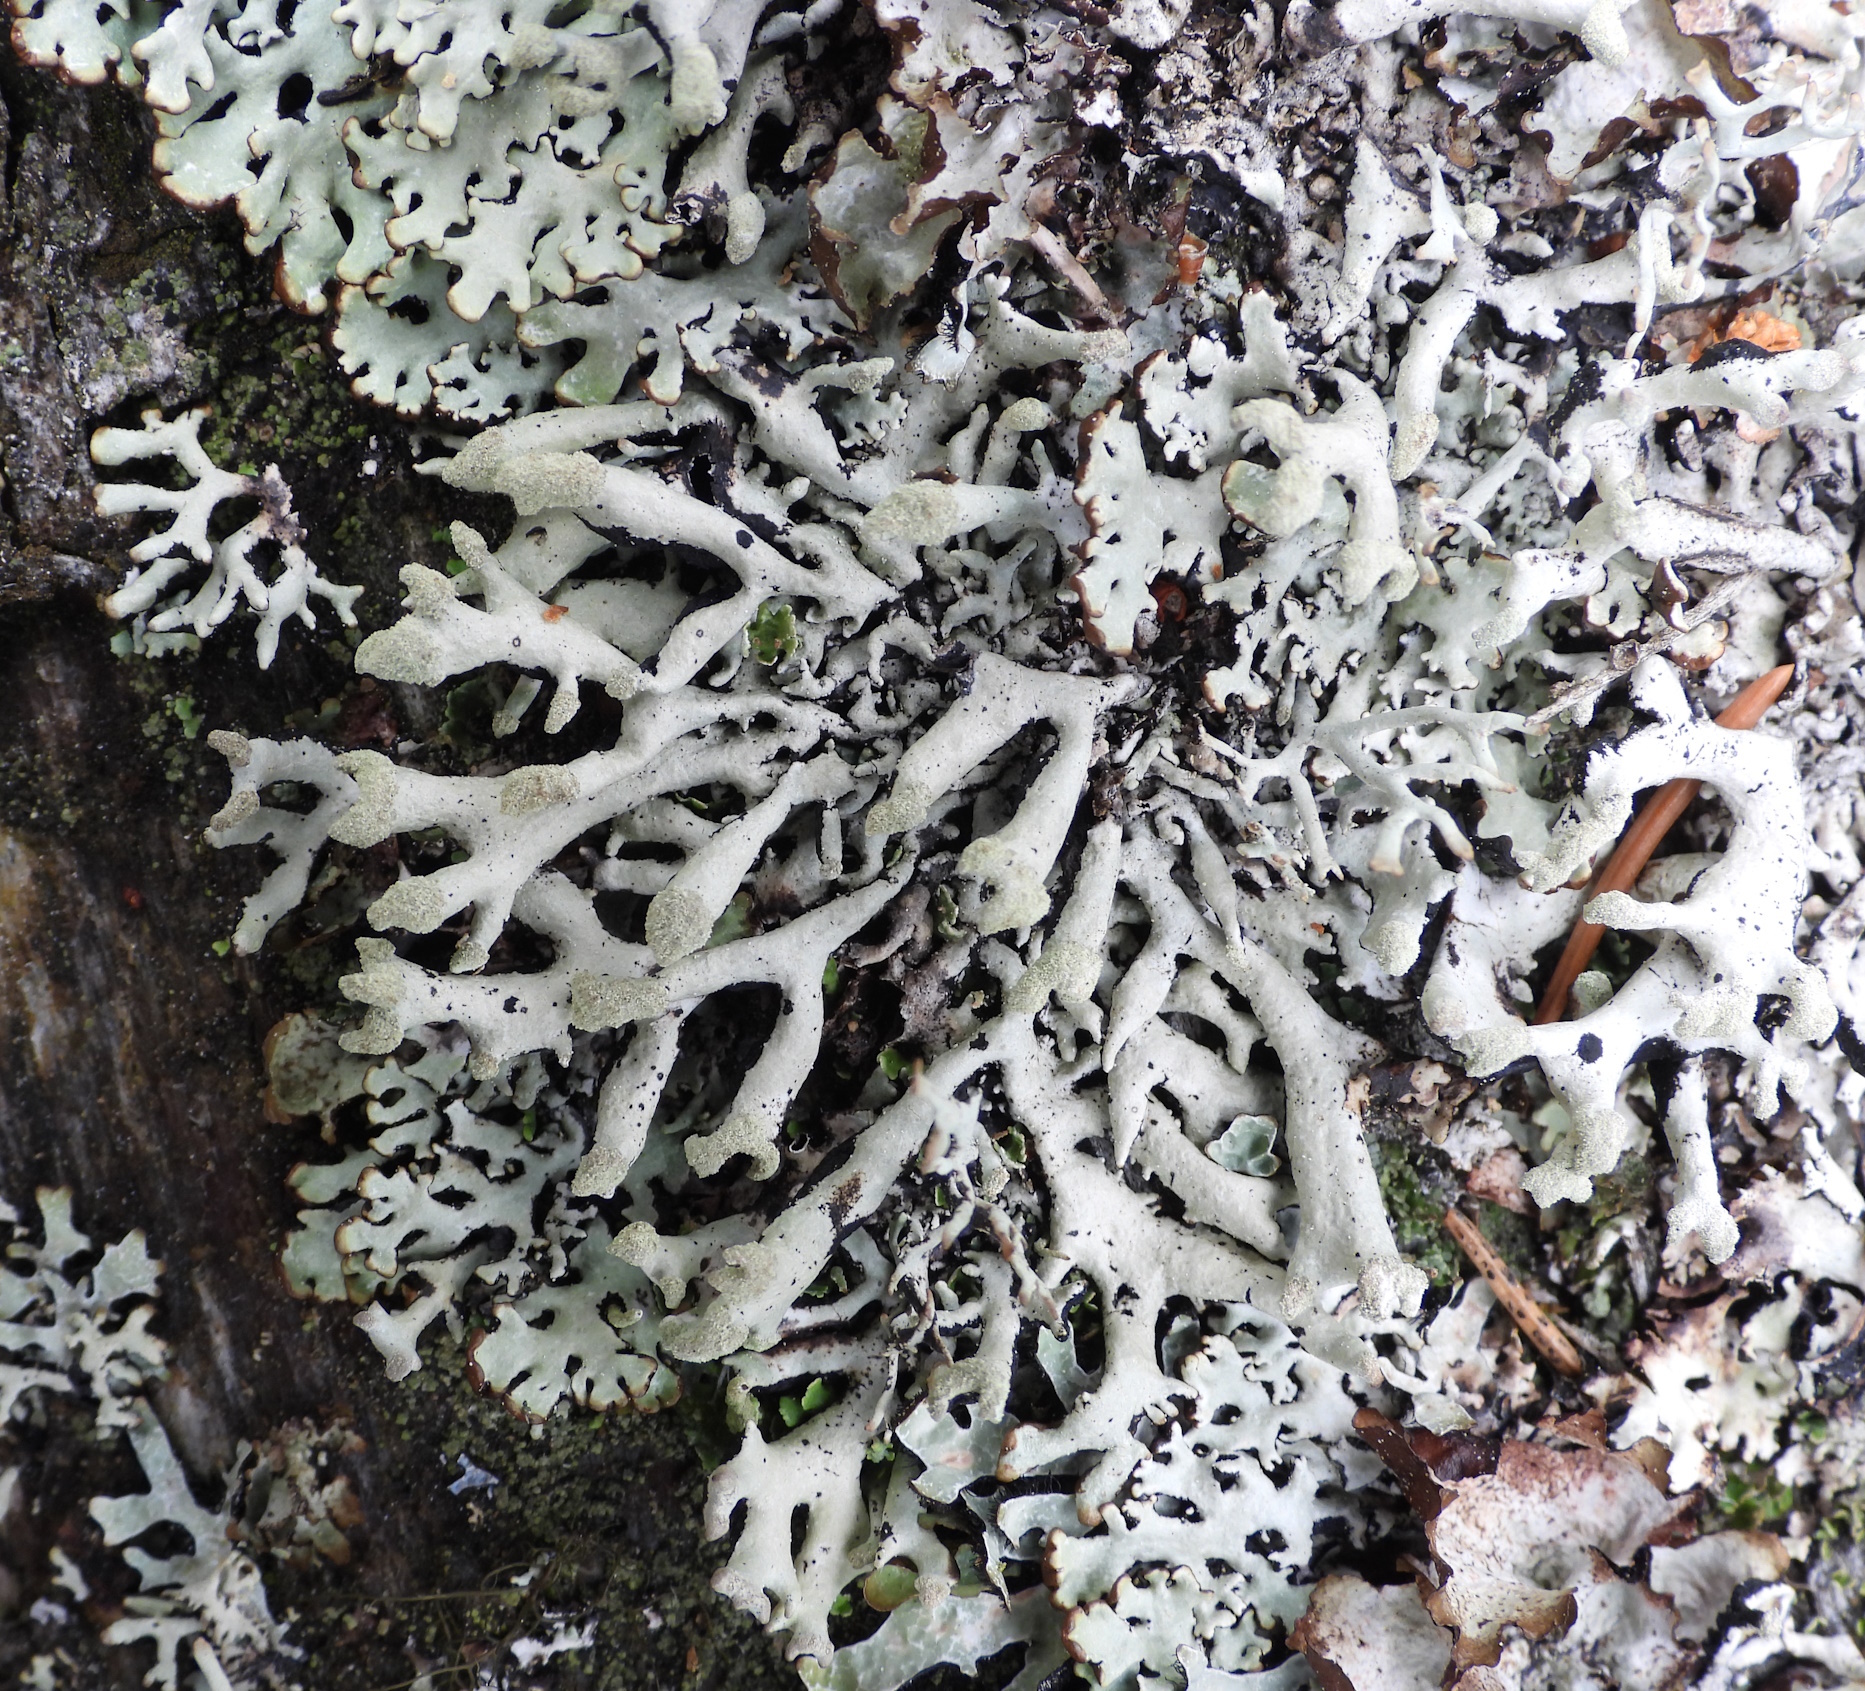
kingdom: Fungi
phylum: Ascomycota
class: Lecanoromycetes
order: Lecanorales
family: Parmeliaceae
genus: Hypogymnia
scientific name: Hypogymnia tubulosa
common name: Powder-headed tube lichen
